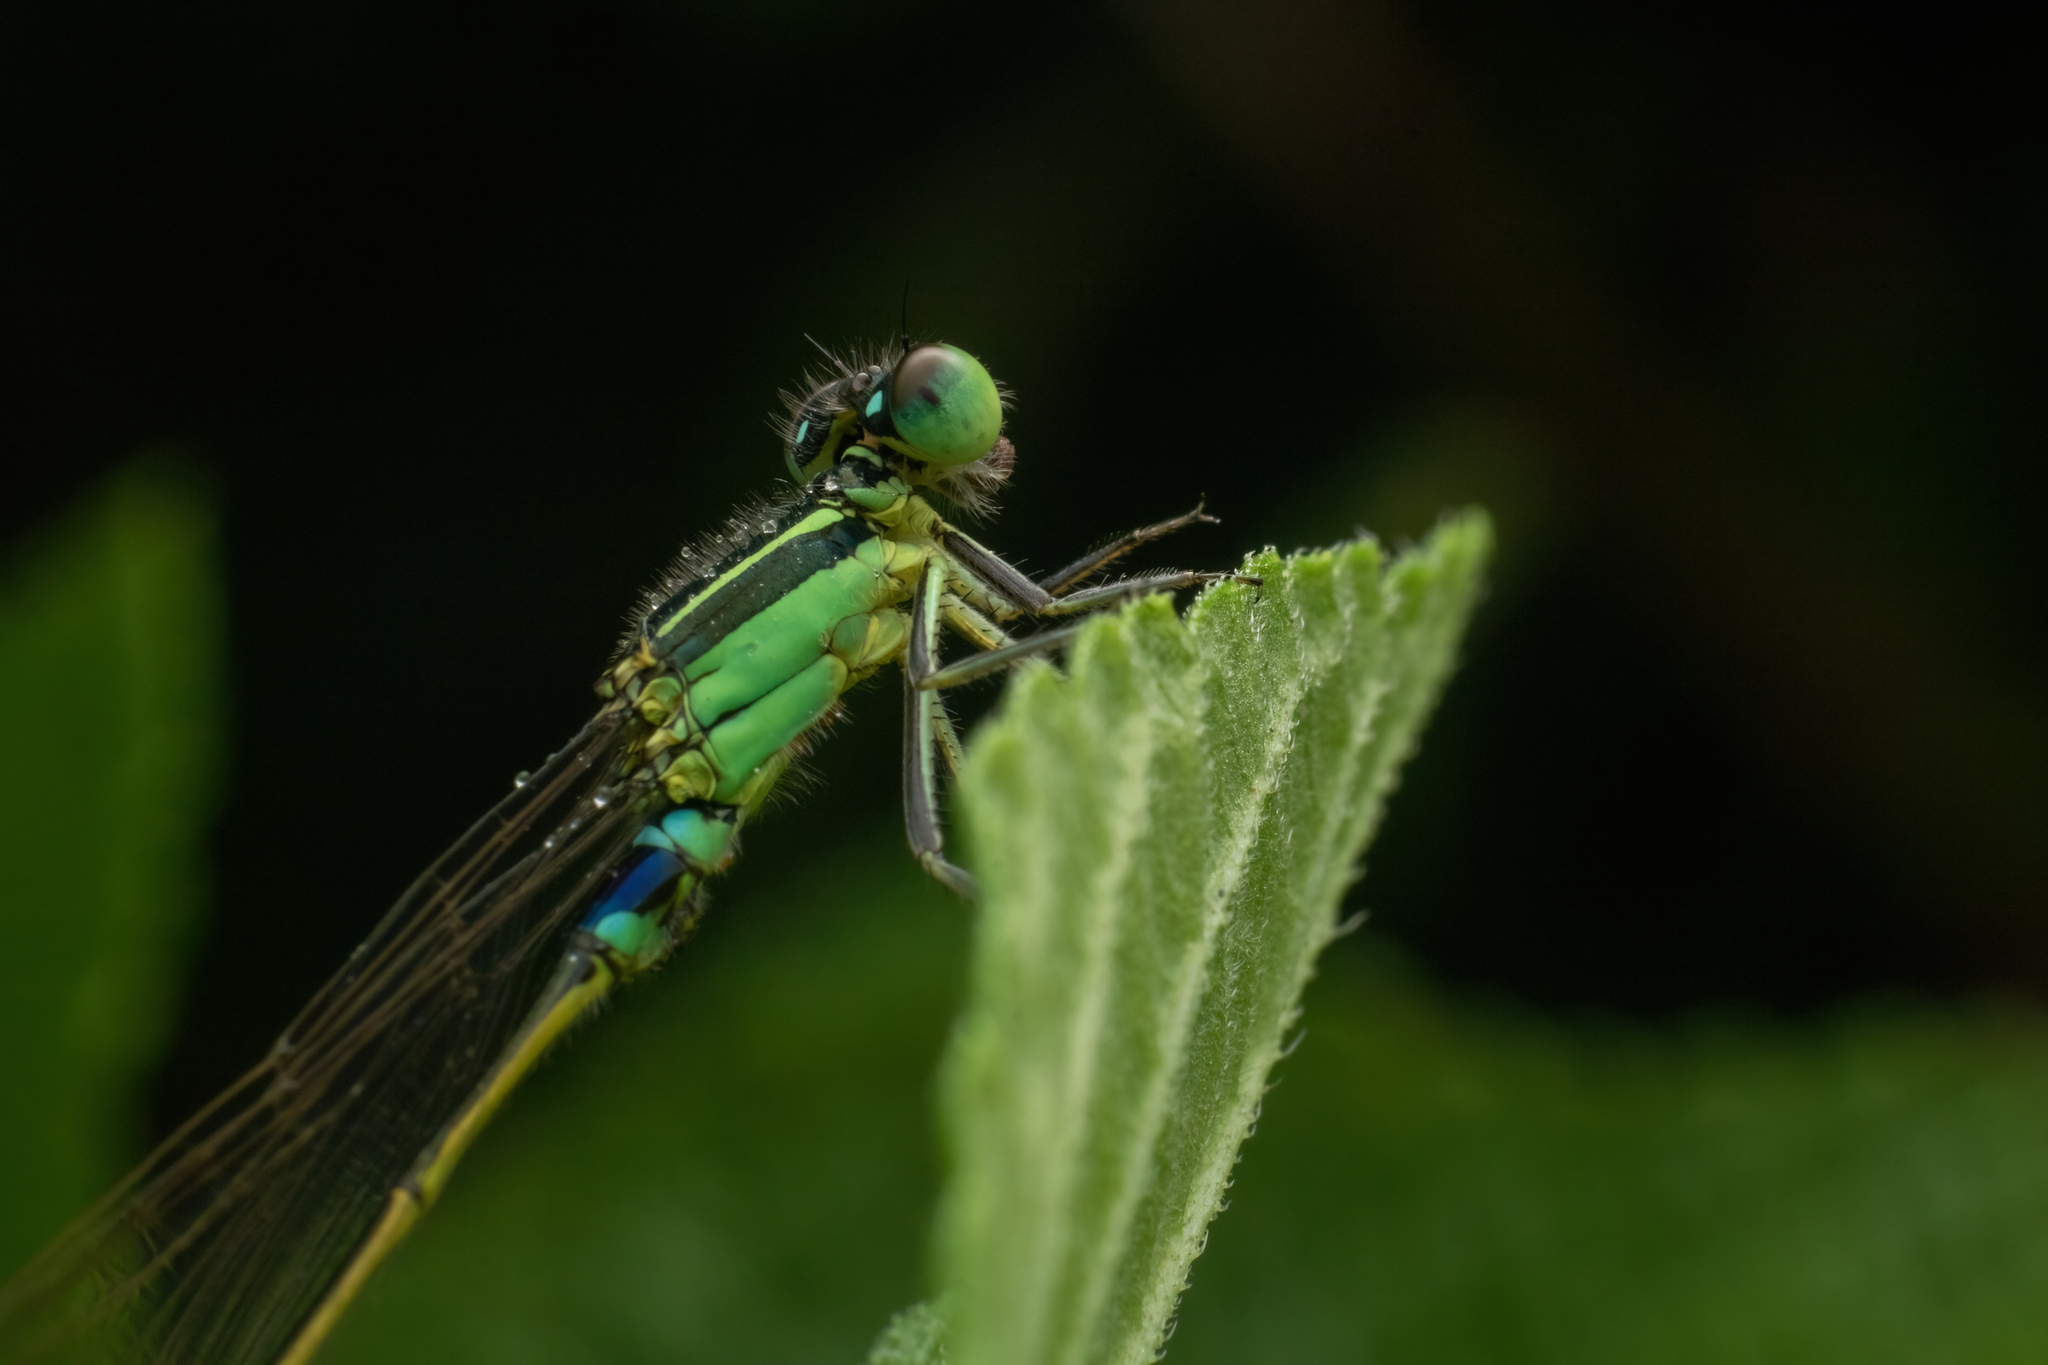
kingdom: Animalia
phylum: Arthropoda
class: Insecta
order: Odonata
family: Coenagrionidae
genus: Ischnura
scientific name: Ischnura senegalensis
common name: Tropical bluetail
